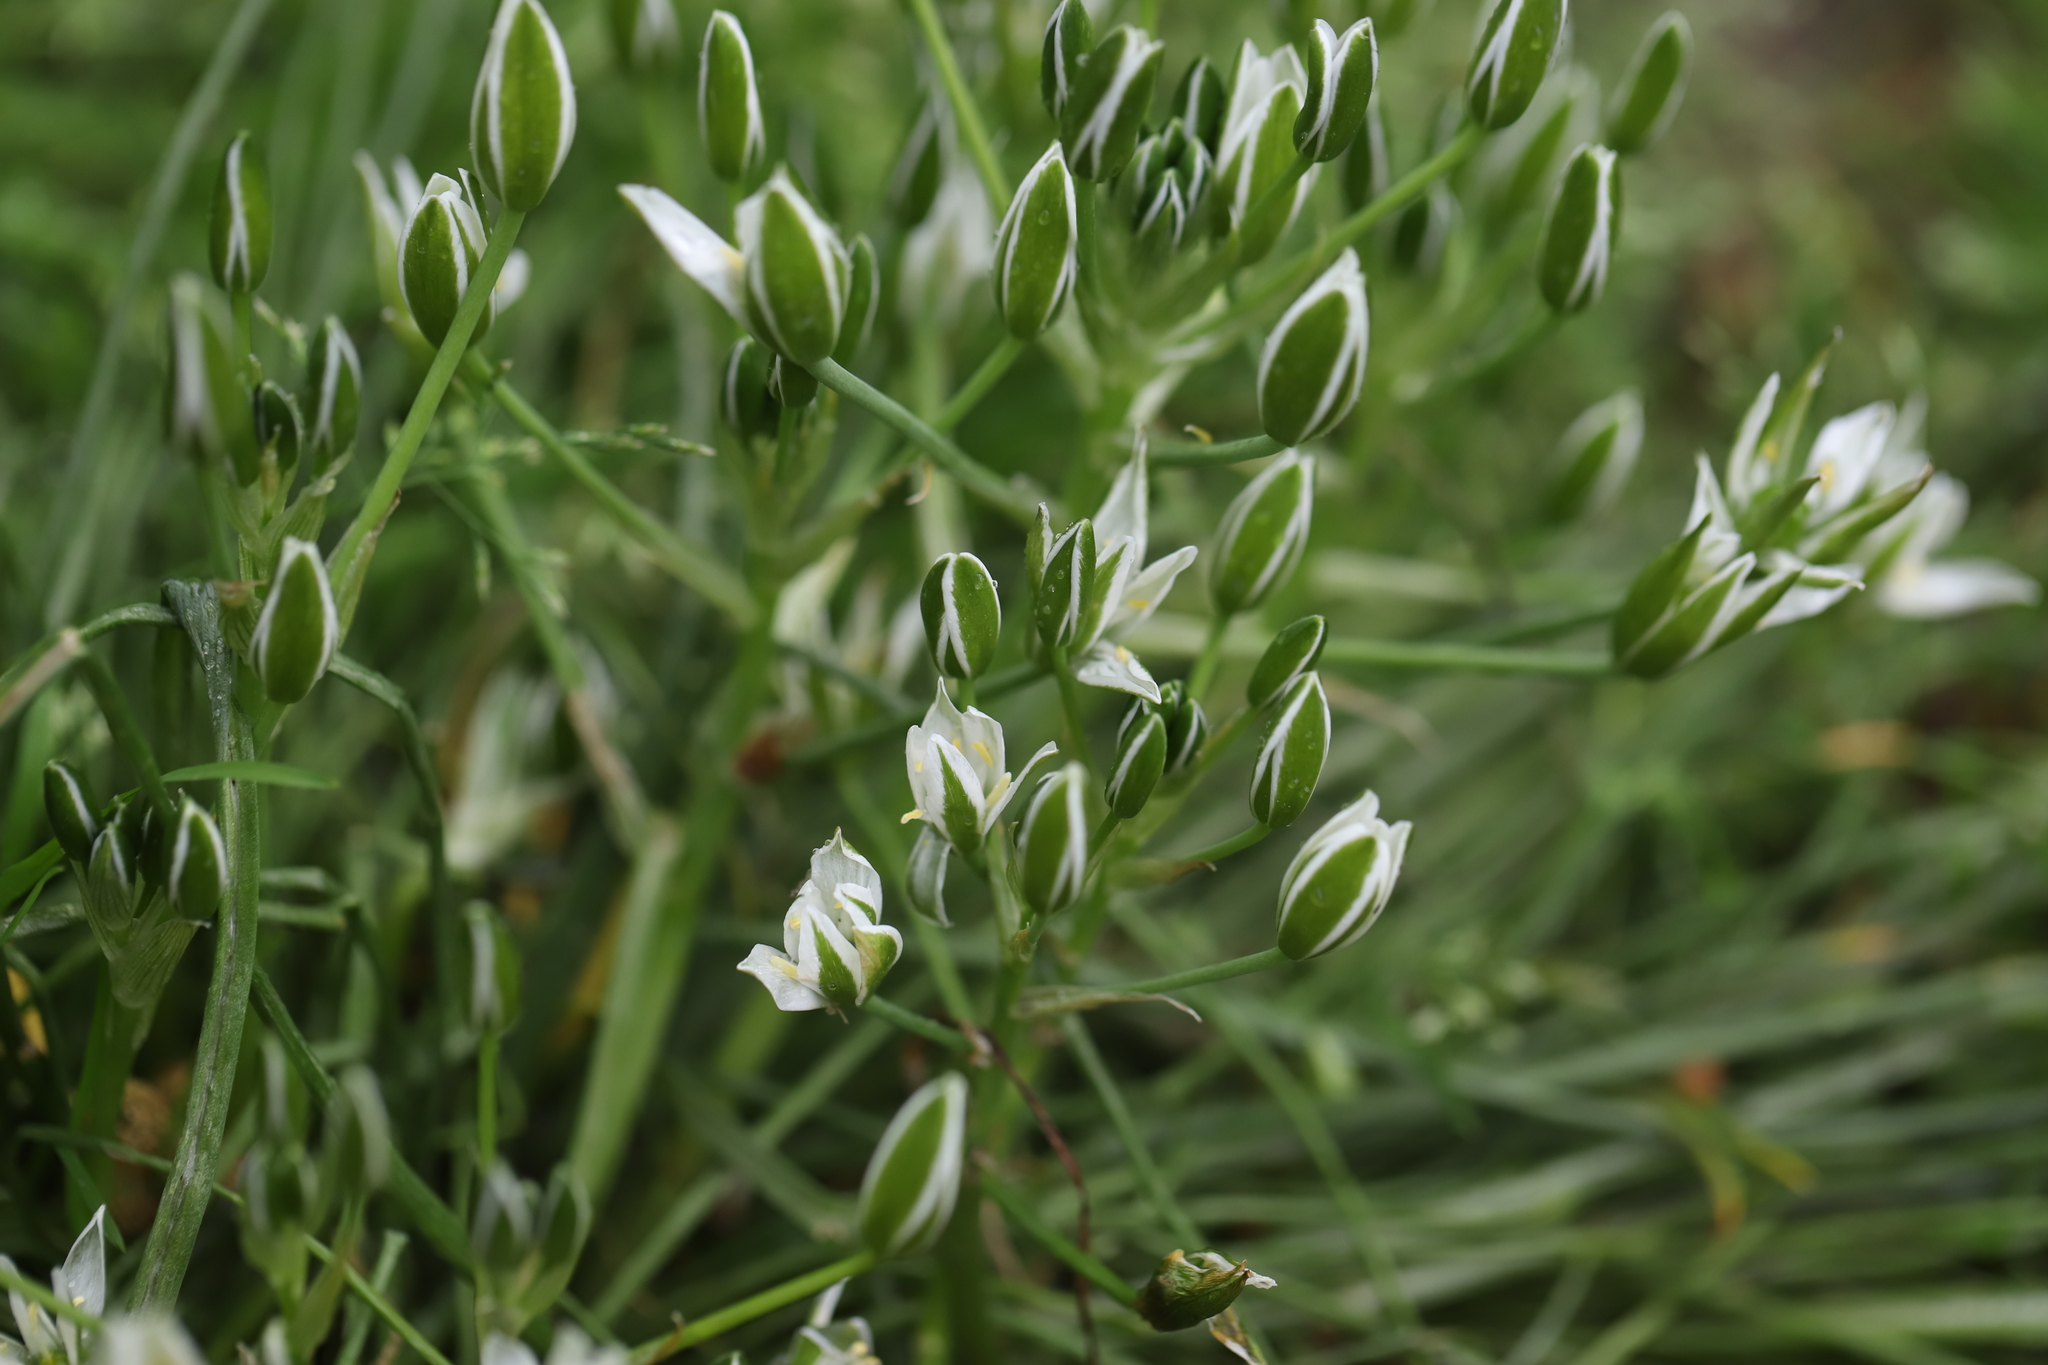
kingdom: Plantae
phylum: Tracheophyta
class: Liliopsida
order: Asparagales
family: Asparagaceae
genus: Ornithogalum
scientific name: Ornithogalum umbellatum
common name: Garden star-of-bethlehem
